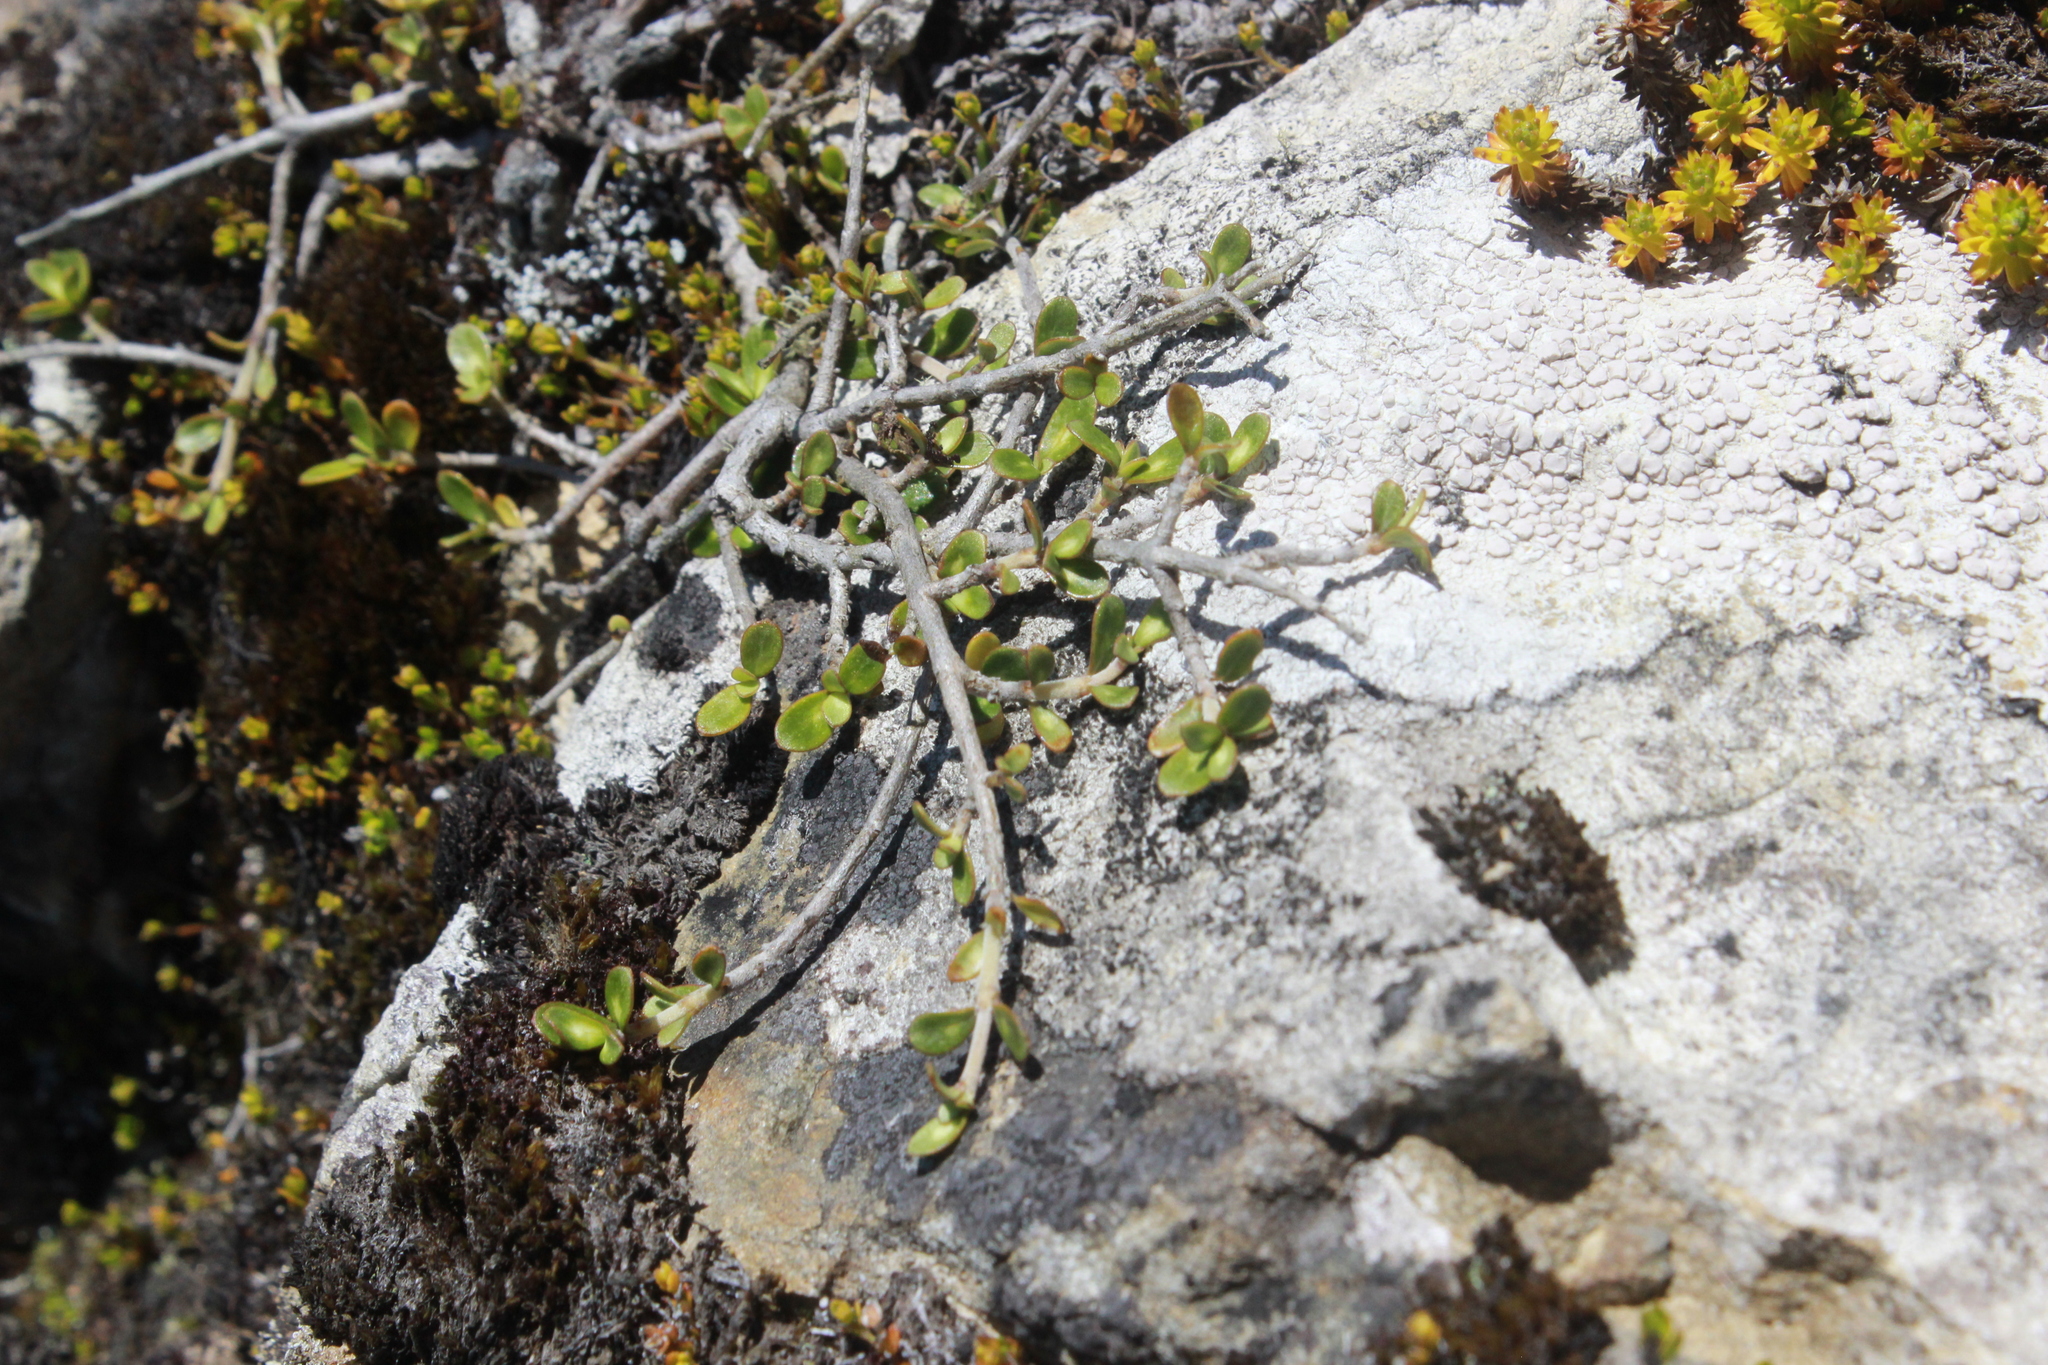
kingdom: Plantae
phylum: Tracheophyta
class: Magnoliopsida
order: Gentianales
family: Rubiaceae
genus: Coprosma
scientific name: Coprosma rhamnoides
